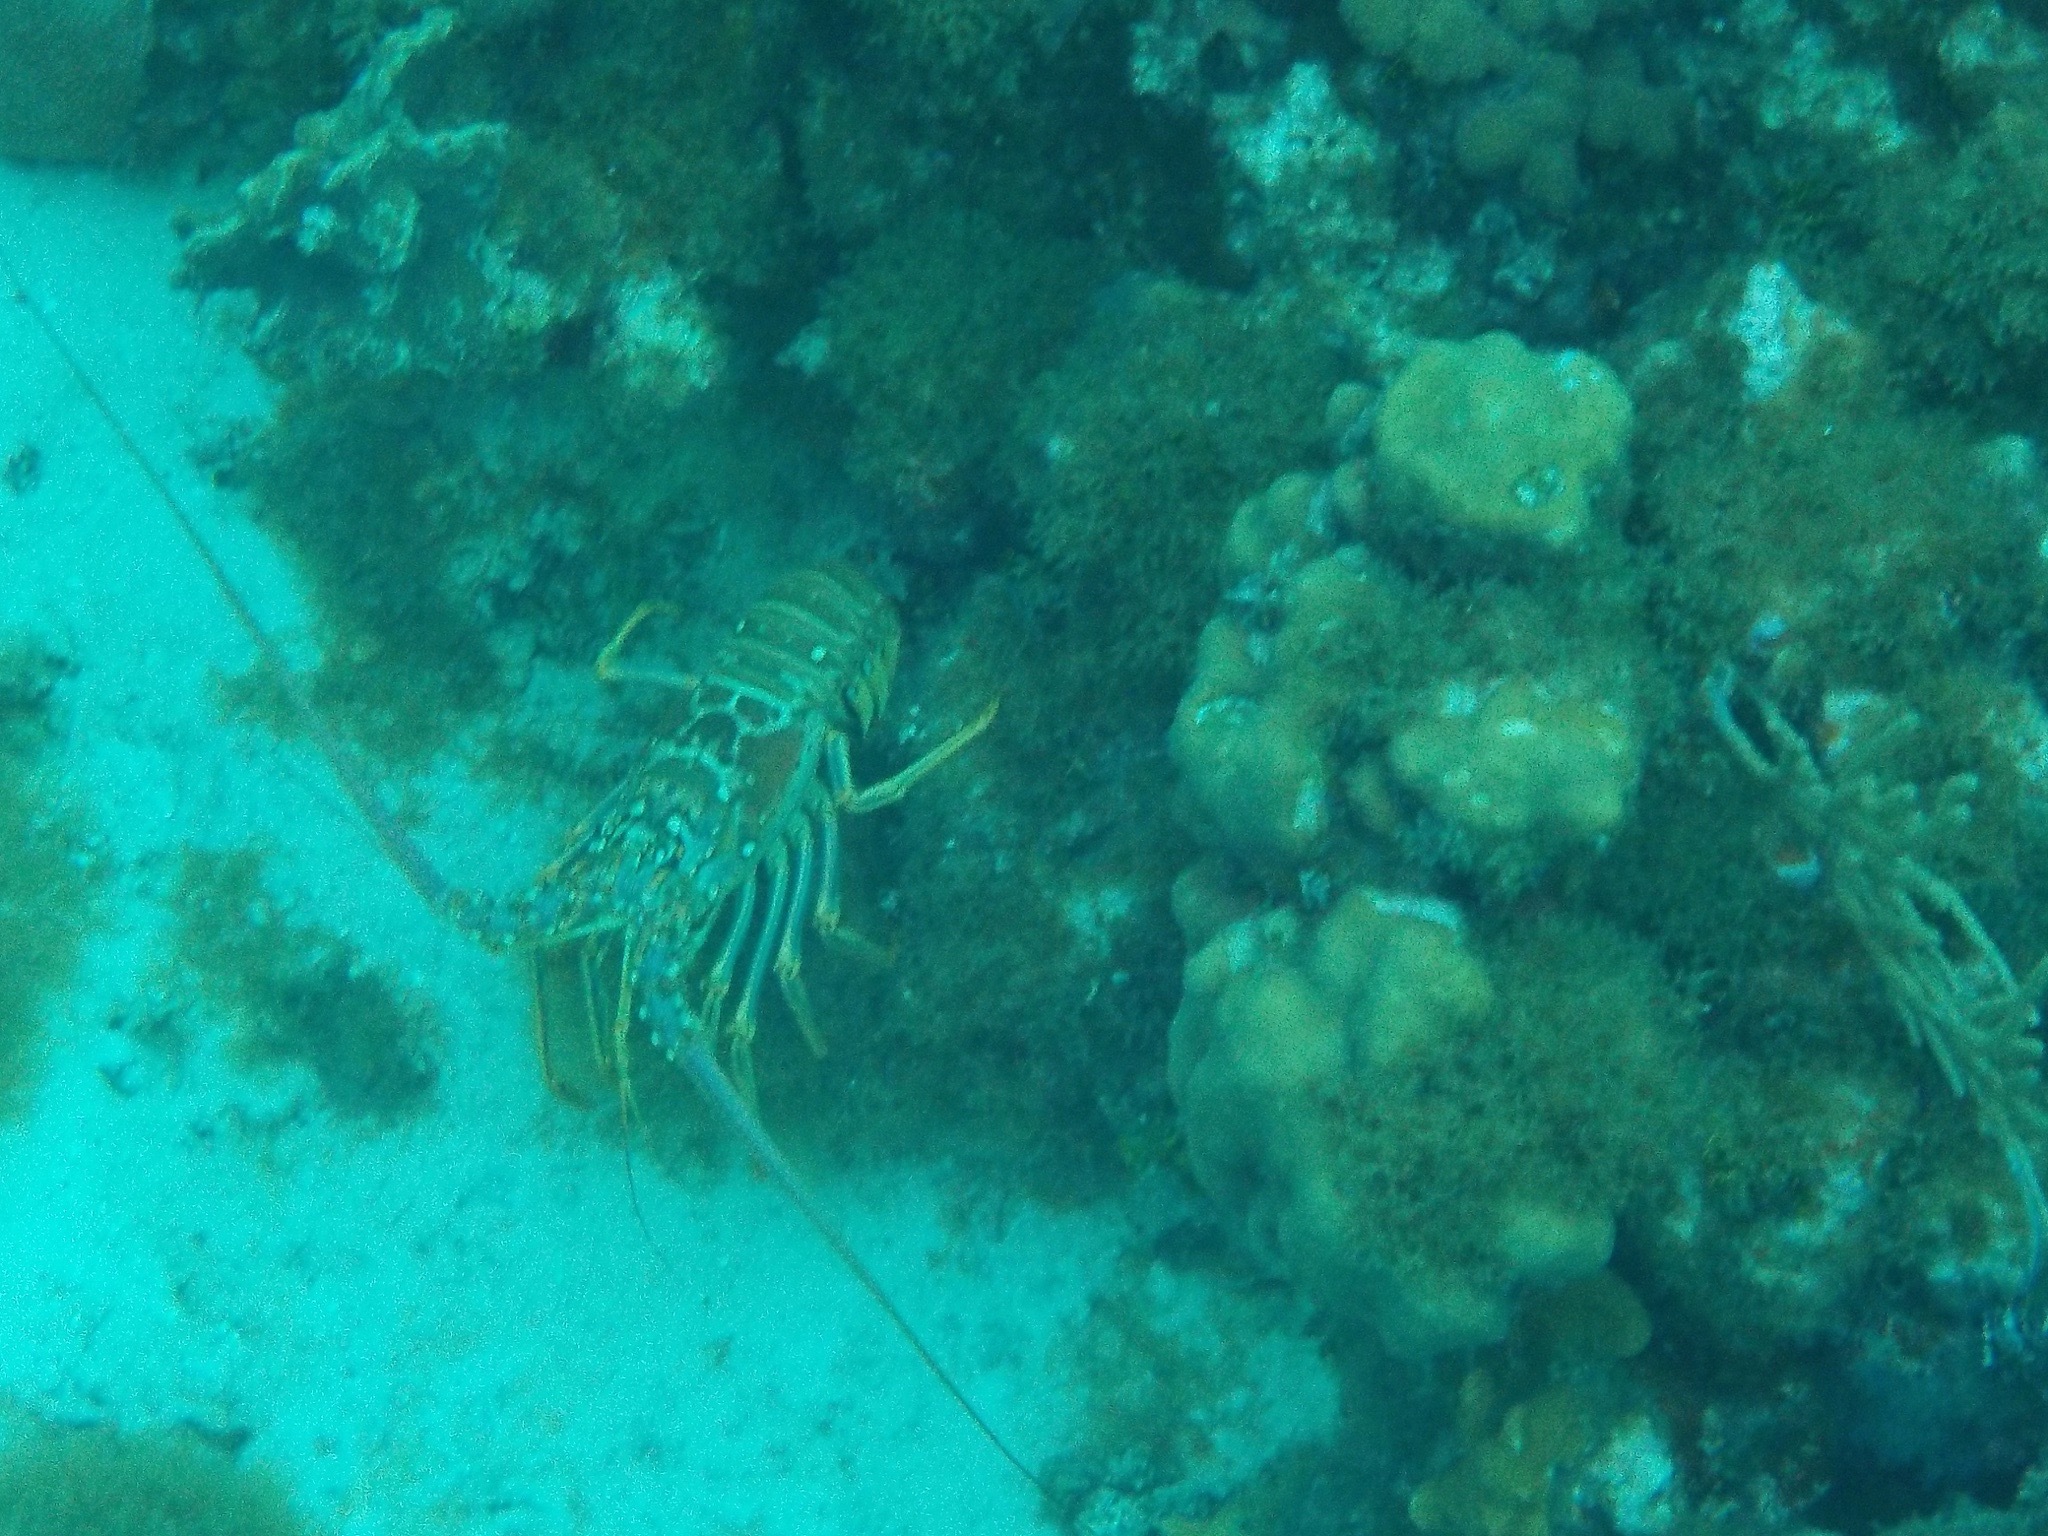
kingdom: Animalia
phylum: Arthropoda
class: Malacostraca
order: Decapoda
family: Palinuridae
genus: Panulirus
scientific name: Panulirus argus
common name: Caribbean spiny lobster
